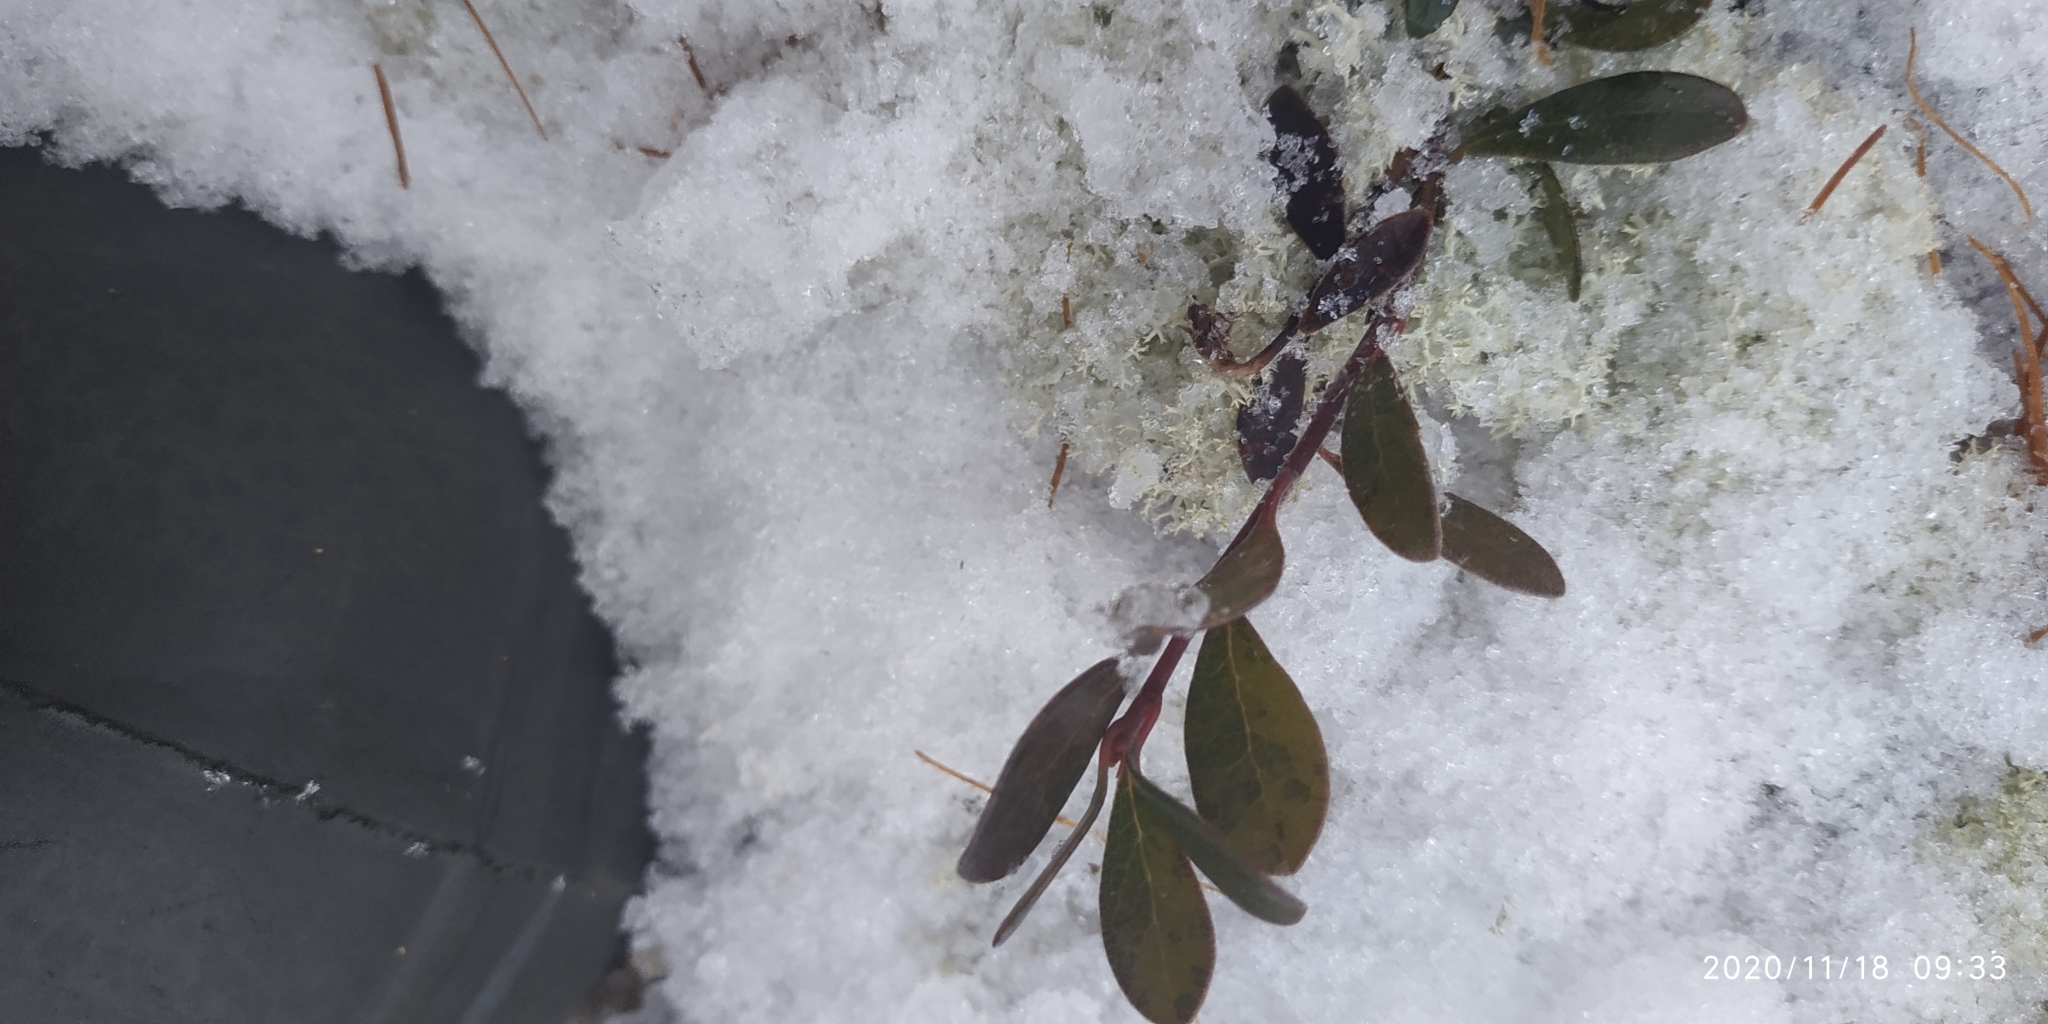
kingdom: Plantae
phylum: Tracheophyta
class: Magnoliopsida
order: Ericales
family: Ericaceae
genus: Vaccinium
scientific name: Vaccinium vitis-idaea
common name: Cowberry
